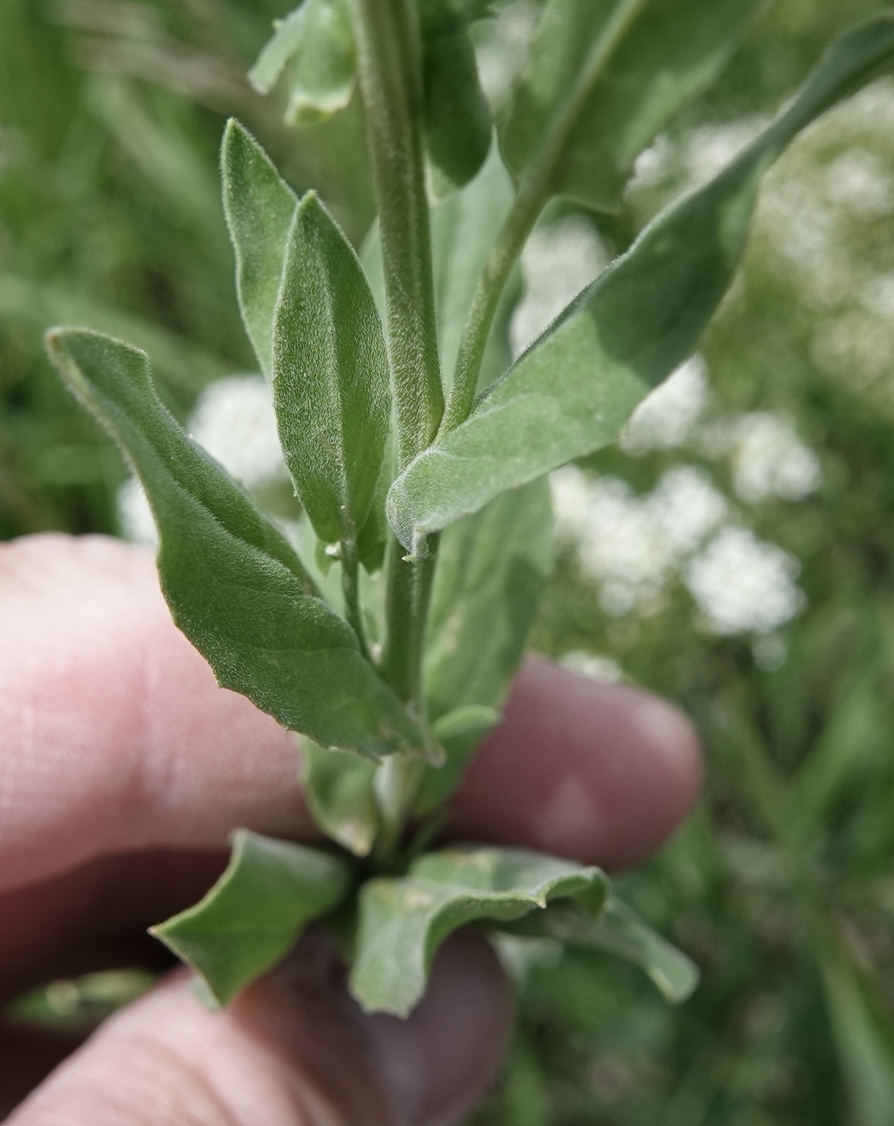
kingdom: Plantae
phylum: Tracheophyta
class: Magnoliopsida
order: Brassicales
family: Brassicaceae
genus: Lepidium
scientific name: Lepidium draba
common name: Hoary cress
